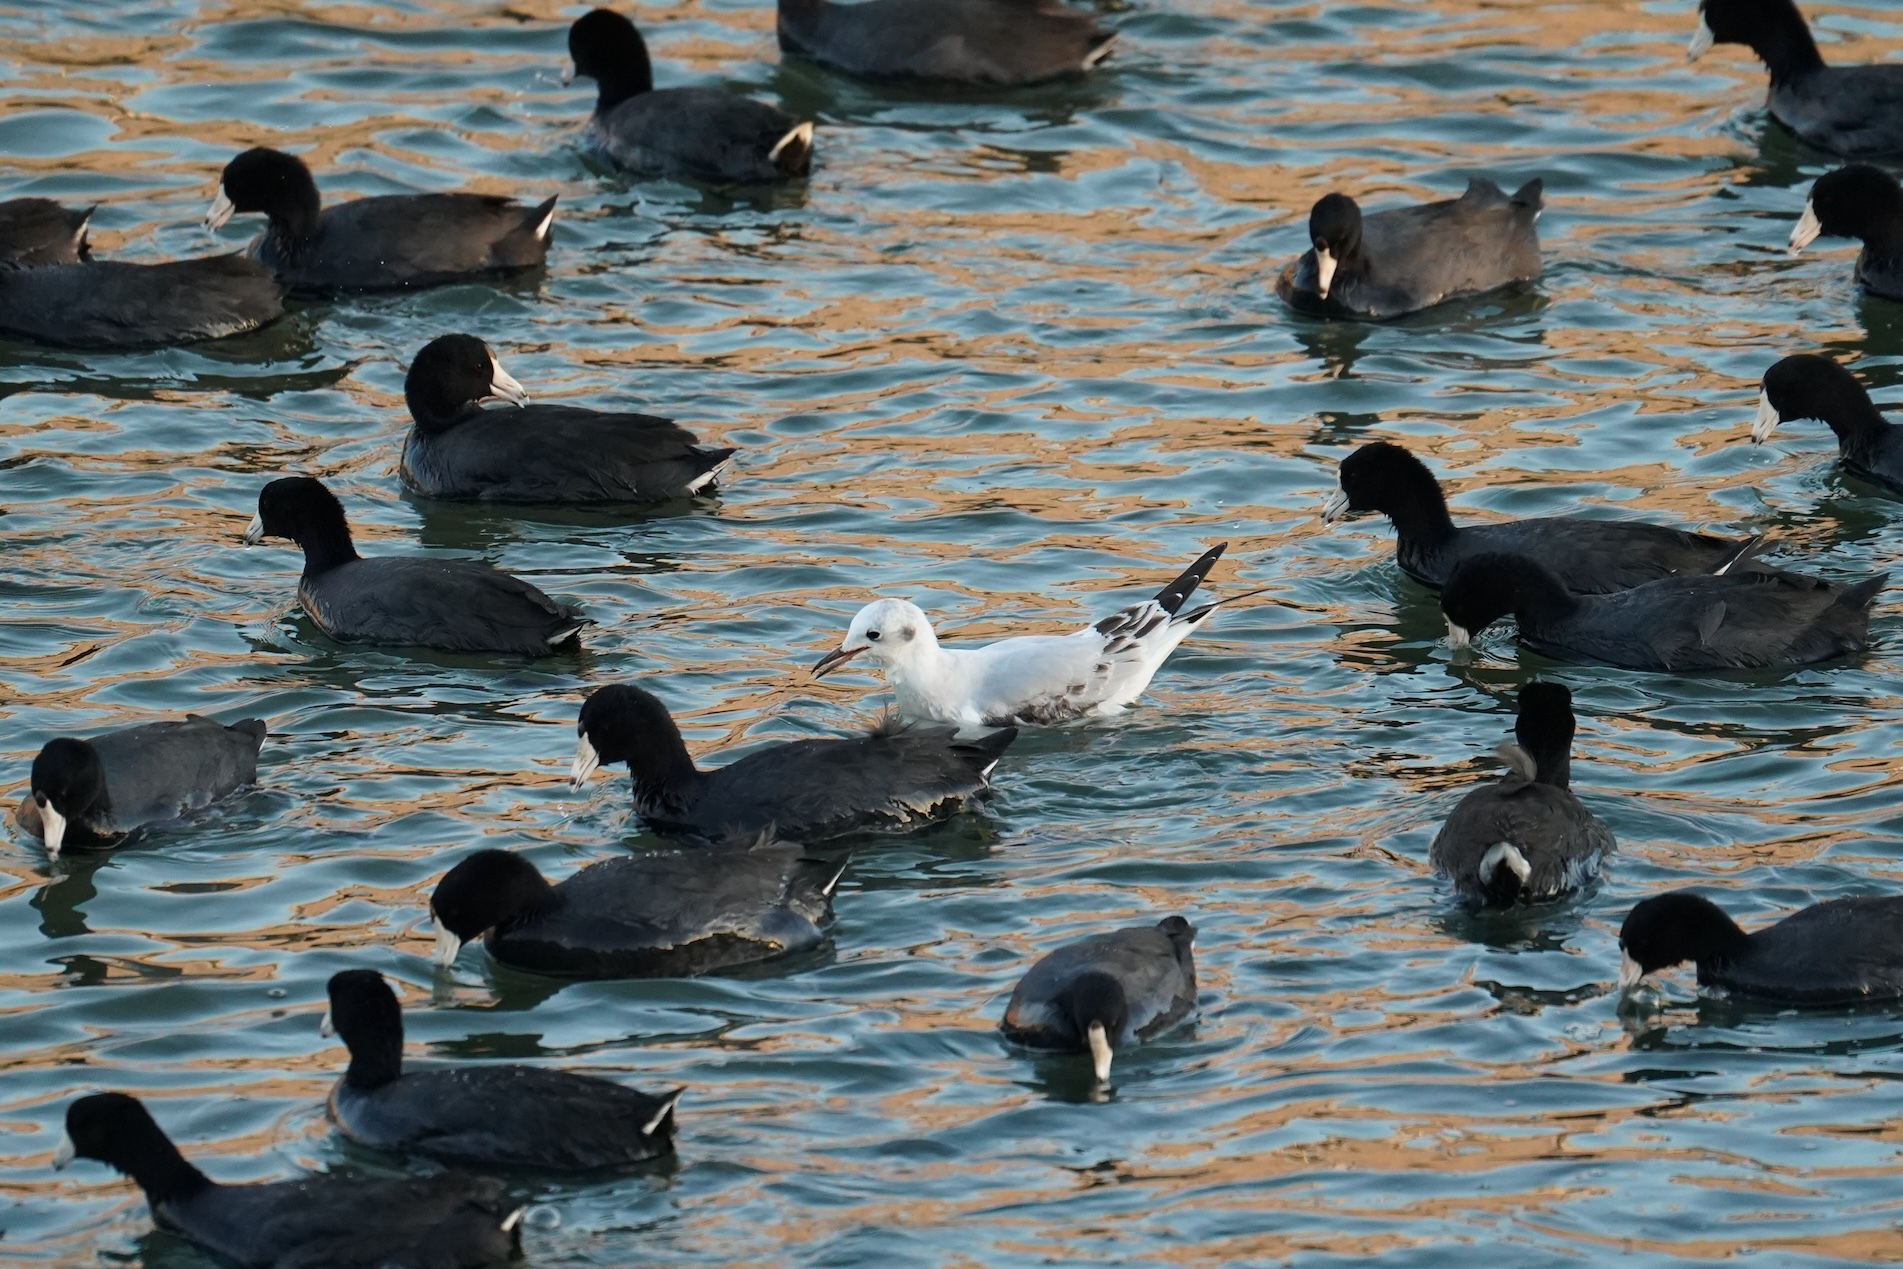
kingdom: Animalia
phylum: Chordata
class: Aves
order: Charadriiformes
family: Laridae
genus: Chroicocephalus
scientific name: Chroicocephalus philadelphia
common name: Bonaparte's gull
